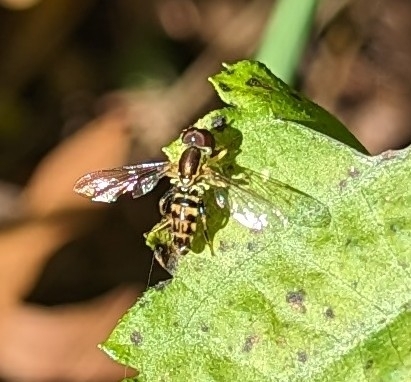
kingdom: Animalia
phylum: Arthropoda
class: Insecta
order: Diptera
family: Syrphidae
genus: Toxomerus
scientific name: Toxomerus geminatus
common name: Eastern calligrapher
